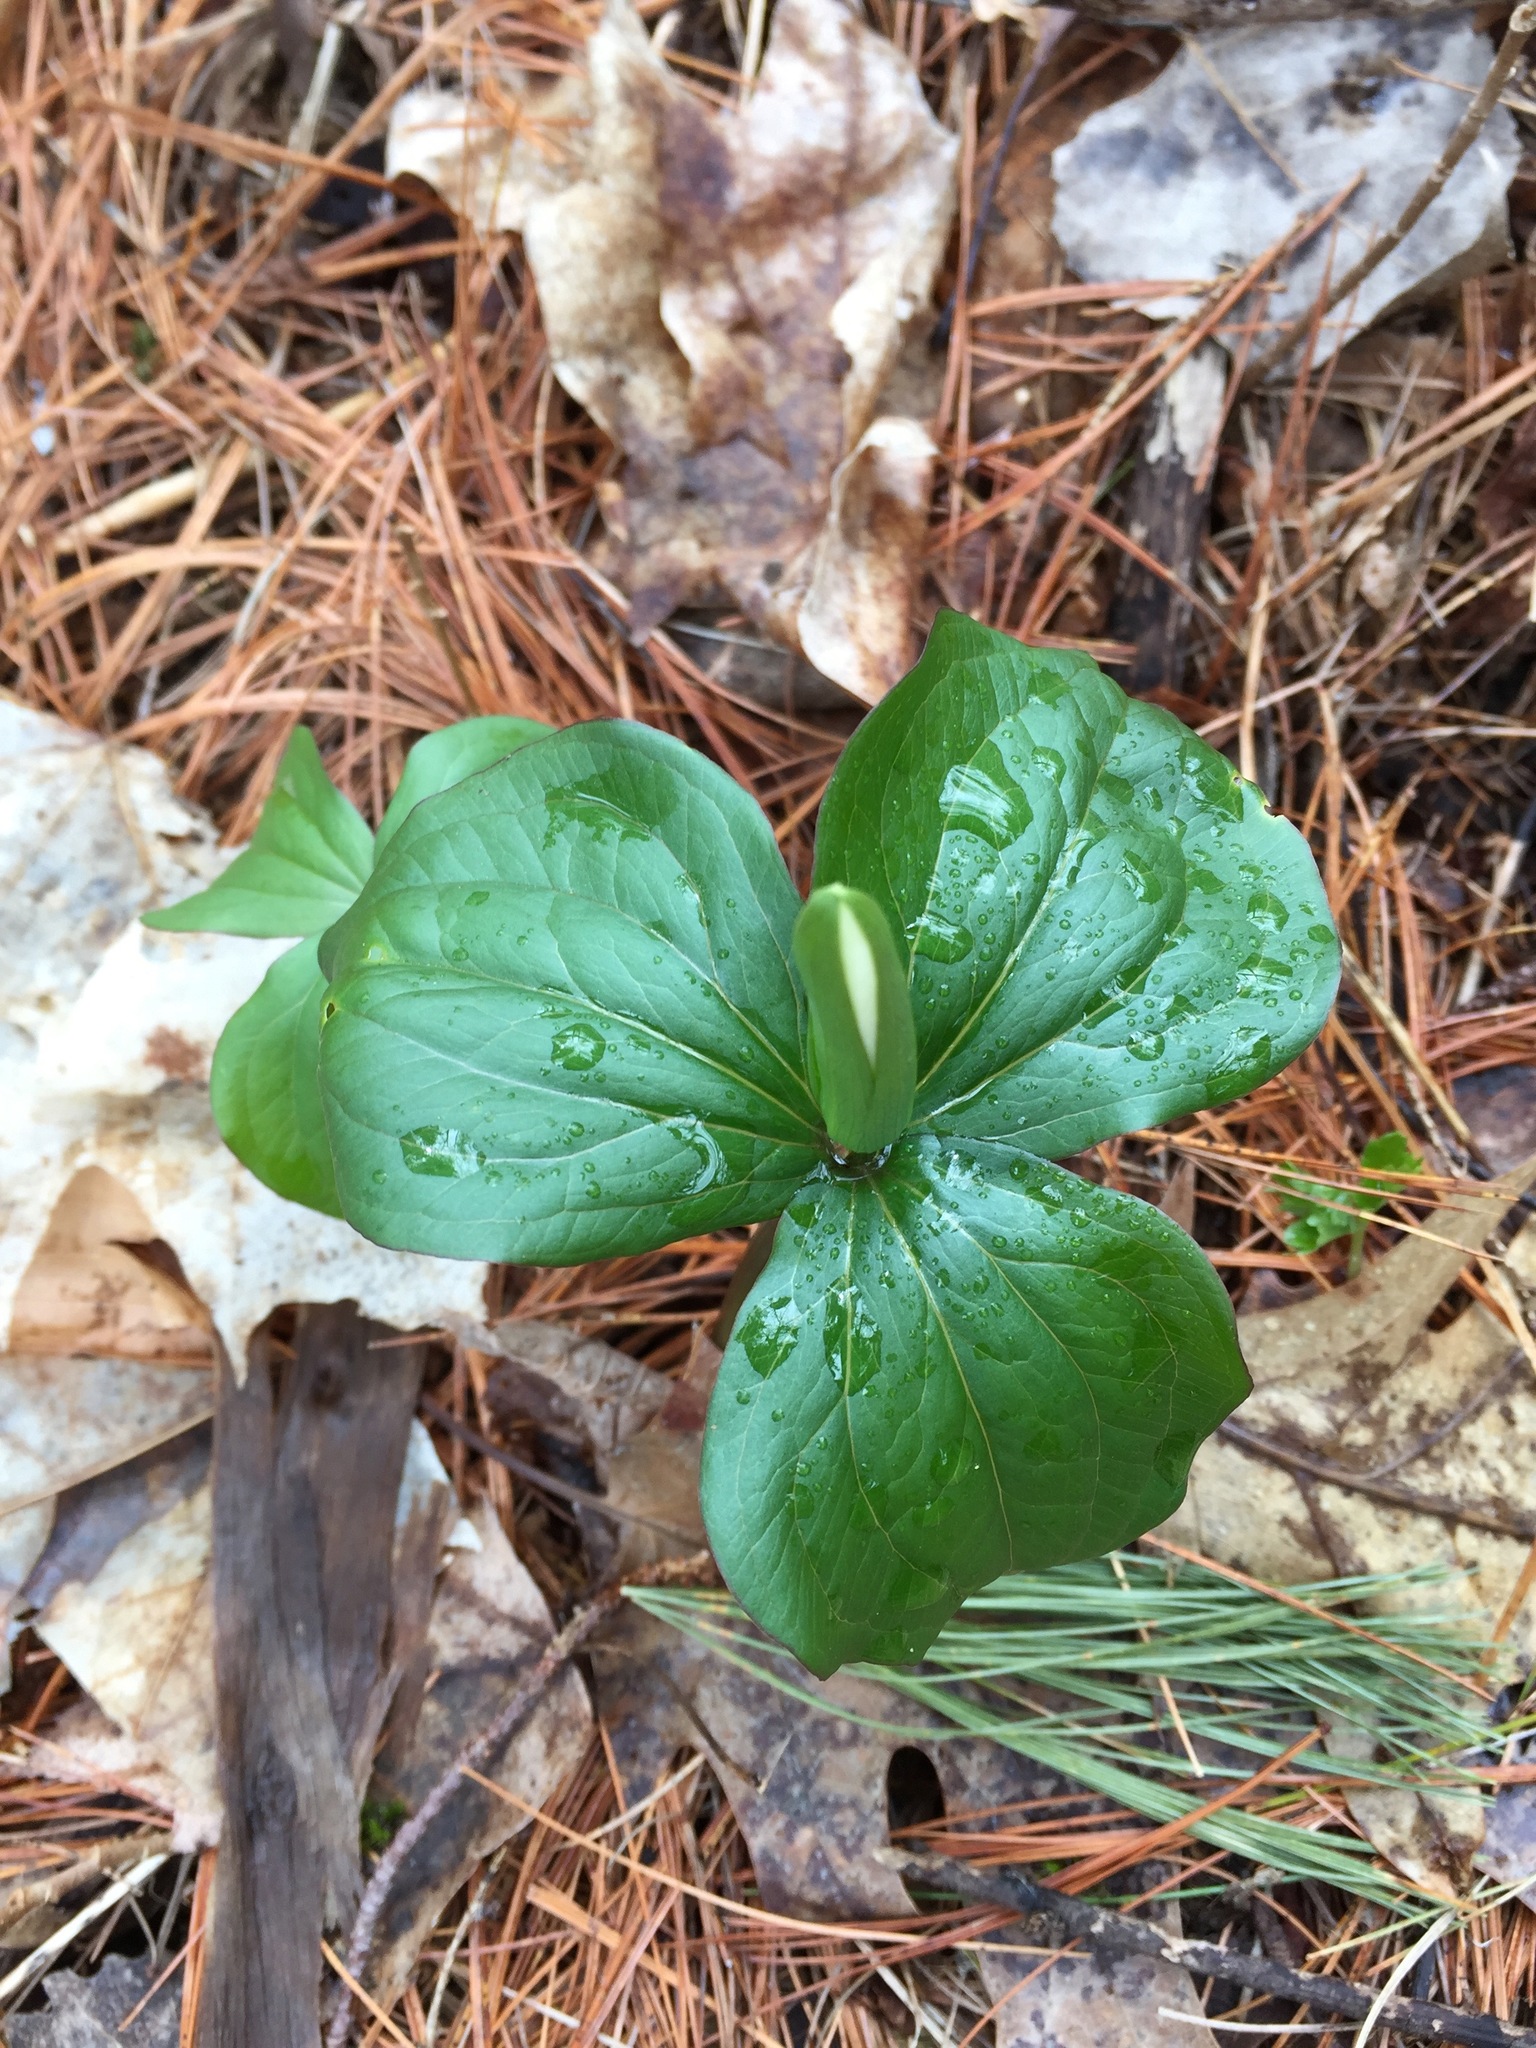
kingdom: Plantae
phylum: Tracheophyta
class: Liliopsida
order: Liliales
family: Melanthiaceae
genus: Trillium
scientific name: Trillium grandiflorum
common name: Great white trillium
